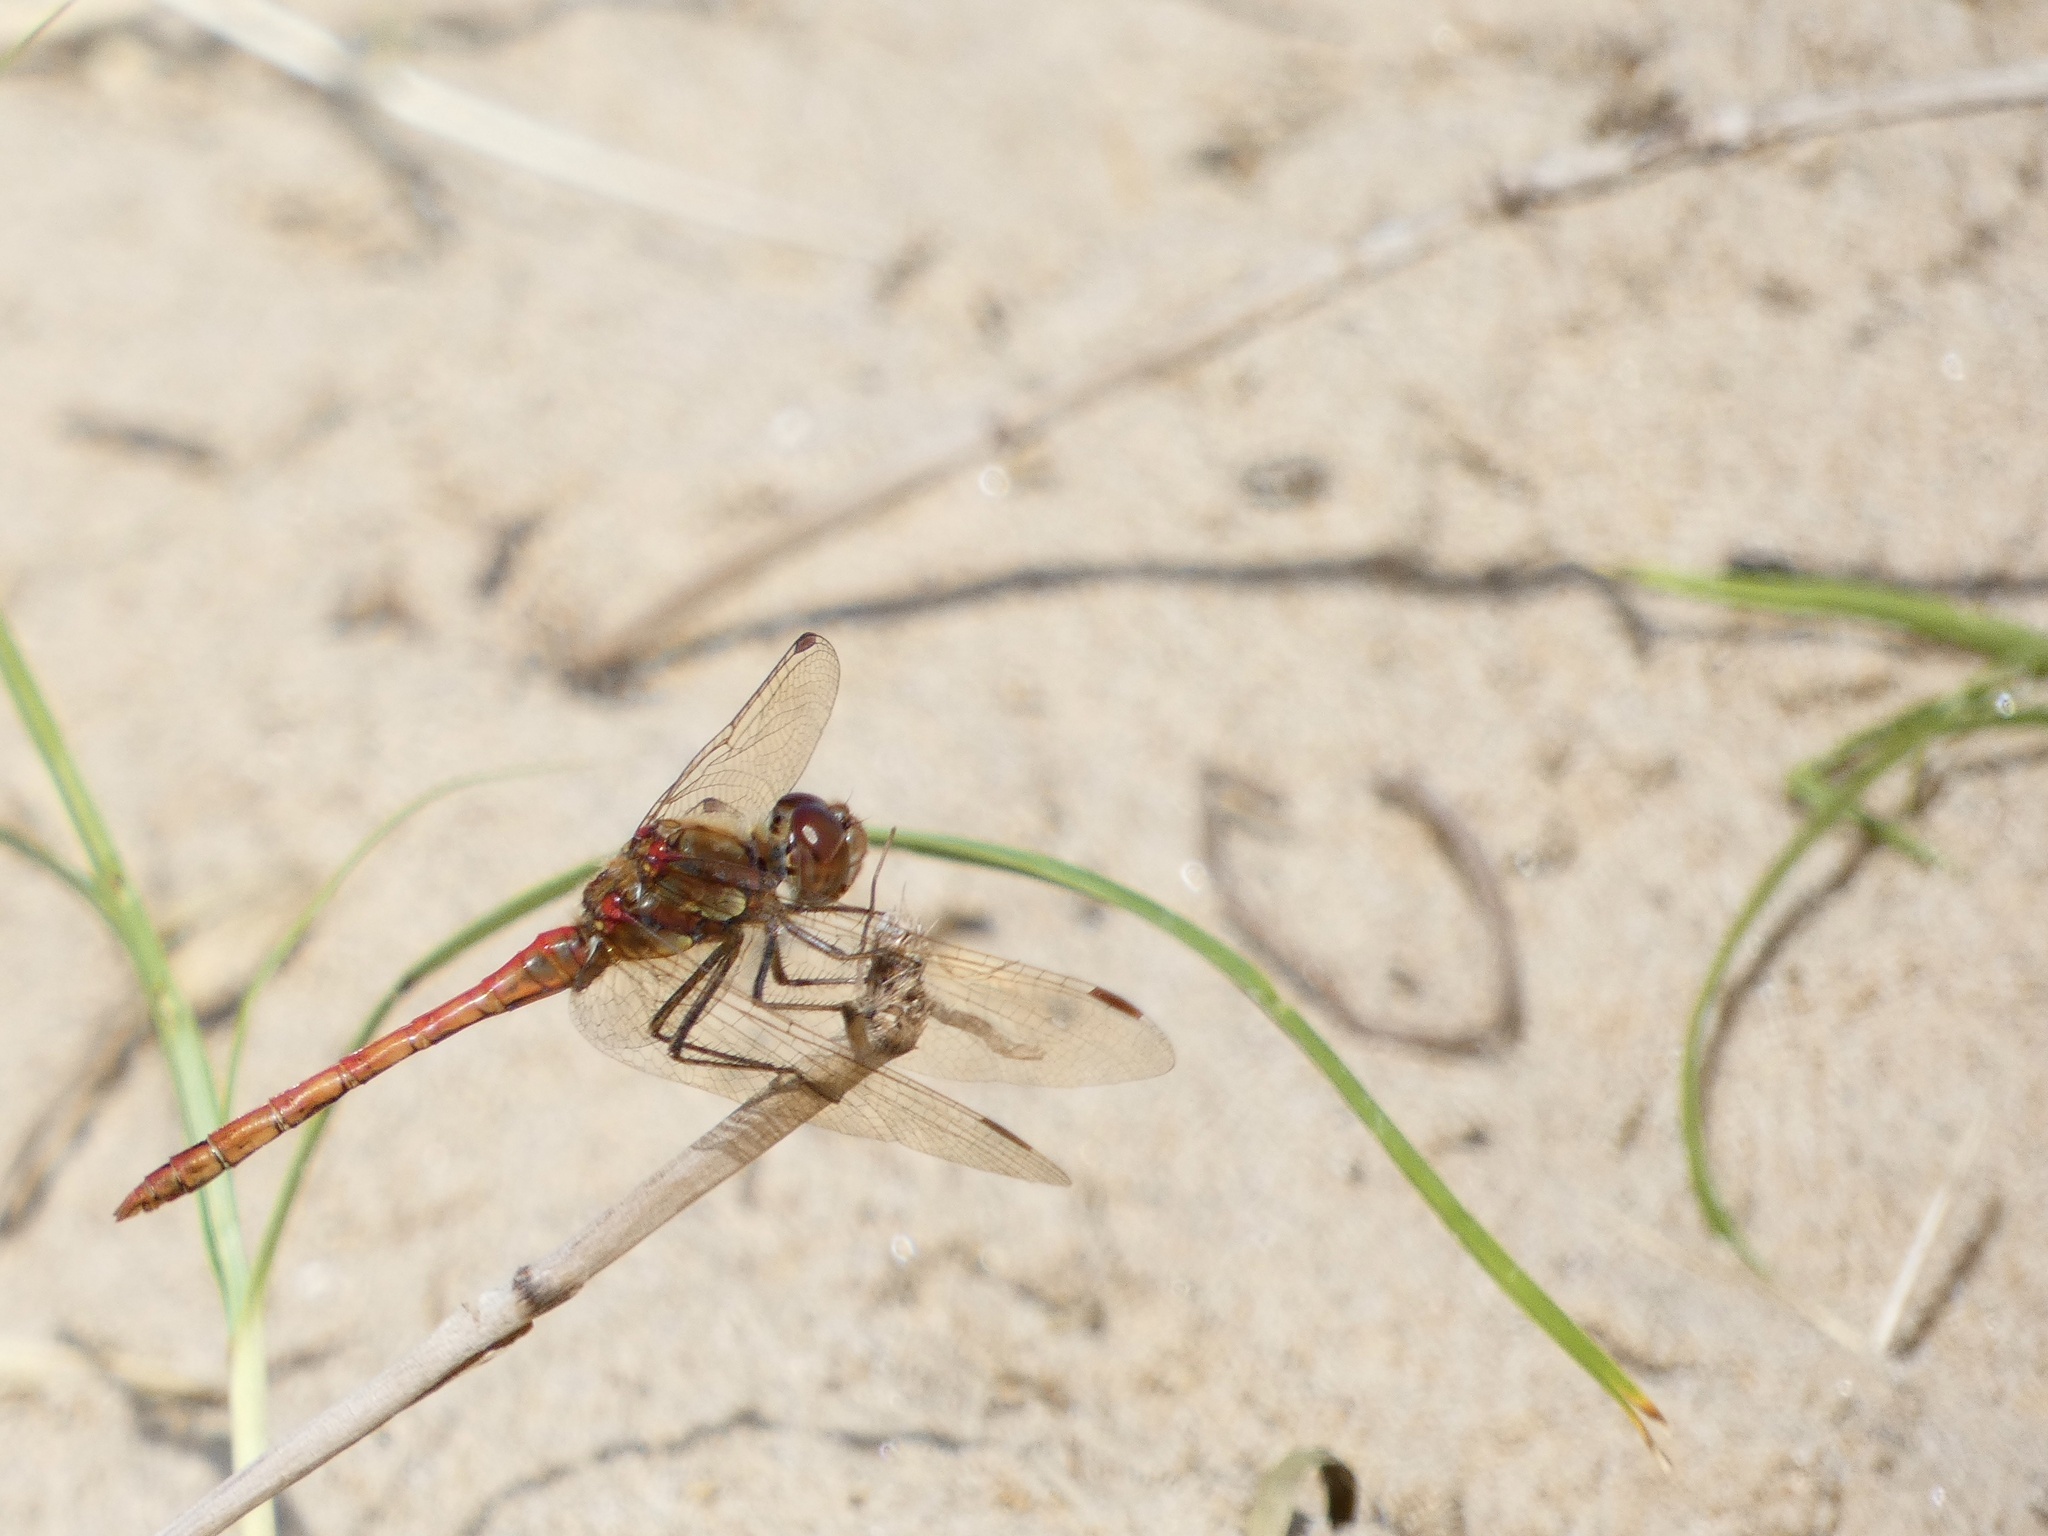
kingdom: Animalia
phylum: Arthropoda
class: Insecta
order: Odonata
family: Libellulidae
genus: Sympetrum
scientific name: Sympetrum striolatum
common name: Common darter
